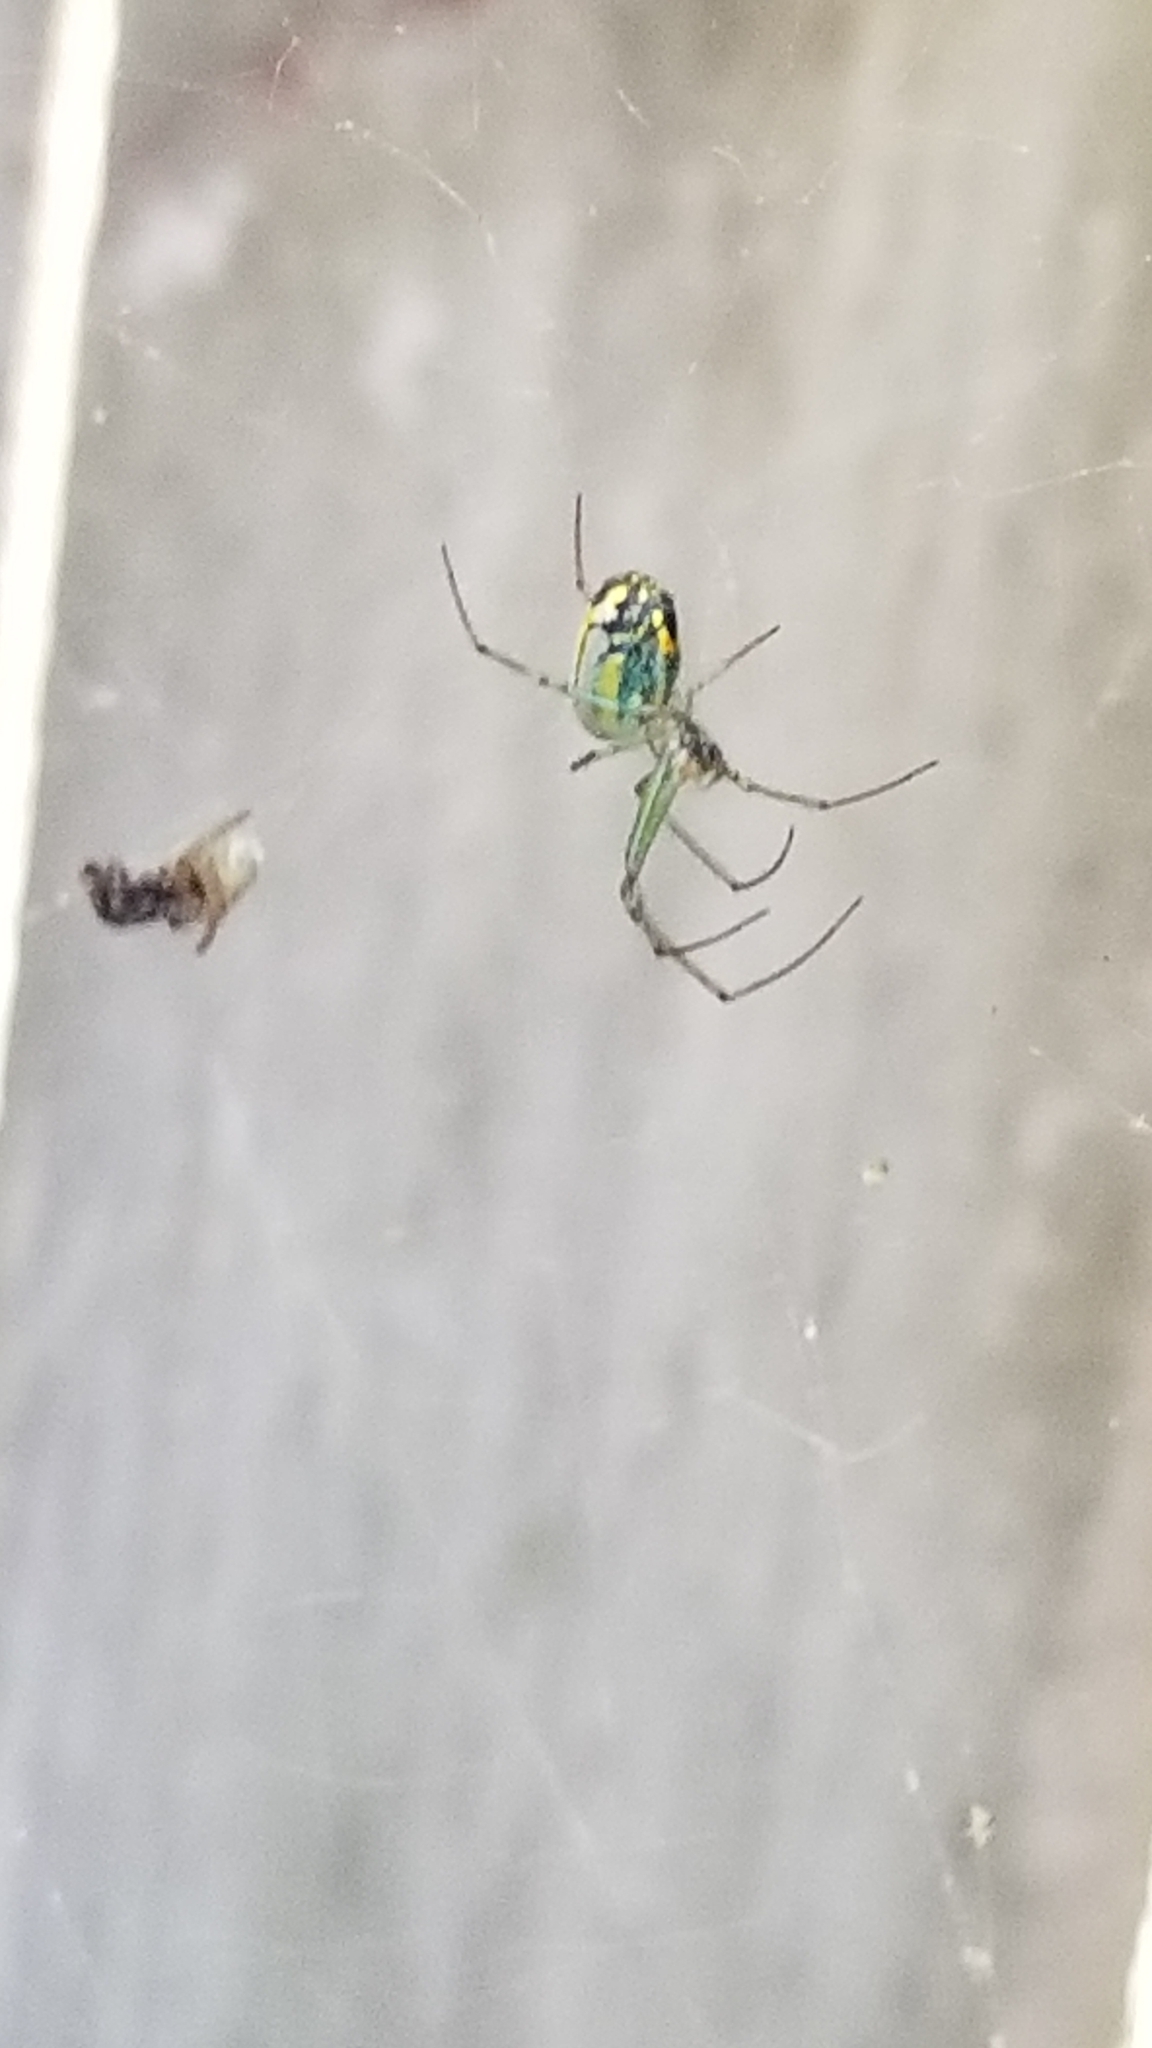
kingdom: Animalia
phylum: Arthropoda
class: Arachnida
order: Araneae
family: Tetragnathidae
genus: Leucauge
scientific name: Leucauge venusta
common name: Longjawed orb weavers
